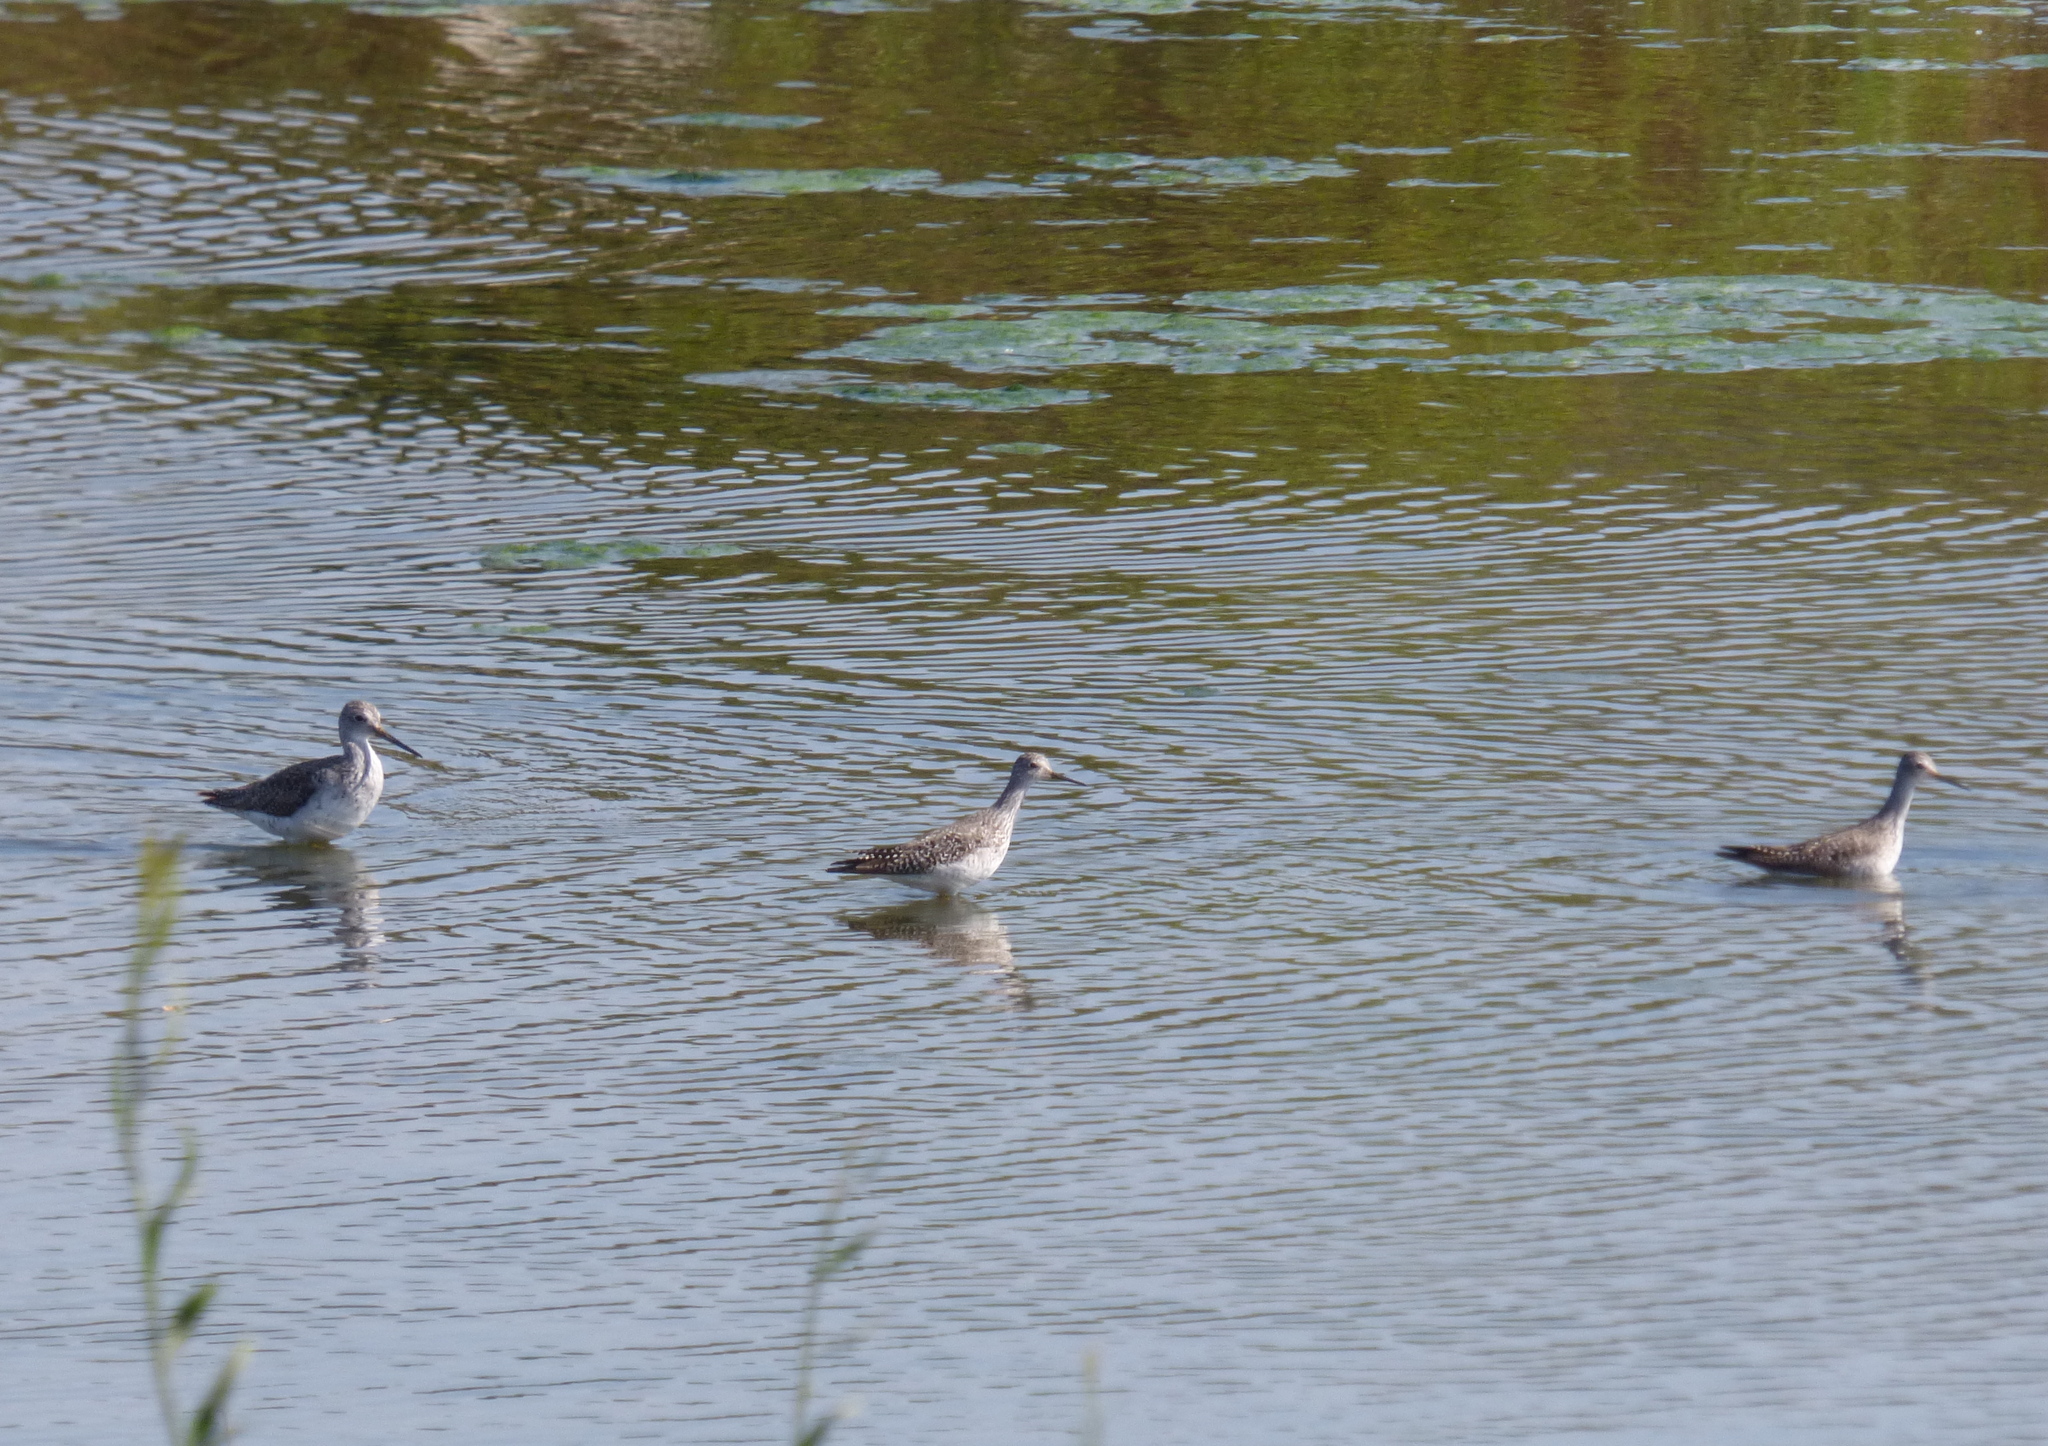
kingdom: Animalia
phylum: Chordata
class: Aves
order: Charadriiformes
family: Scolopacidae
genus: Tringa
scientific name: Tringa flavipes
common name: Lesser yellowlegs
